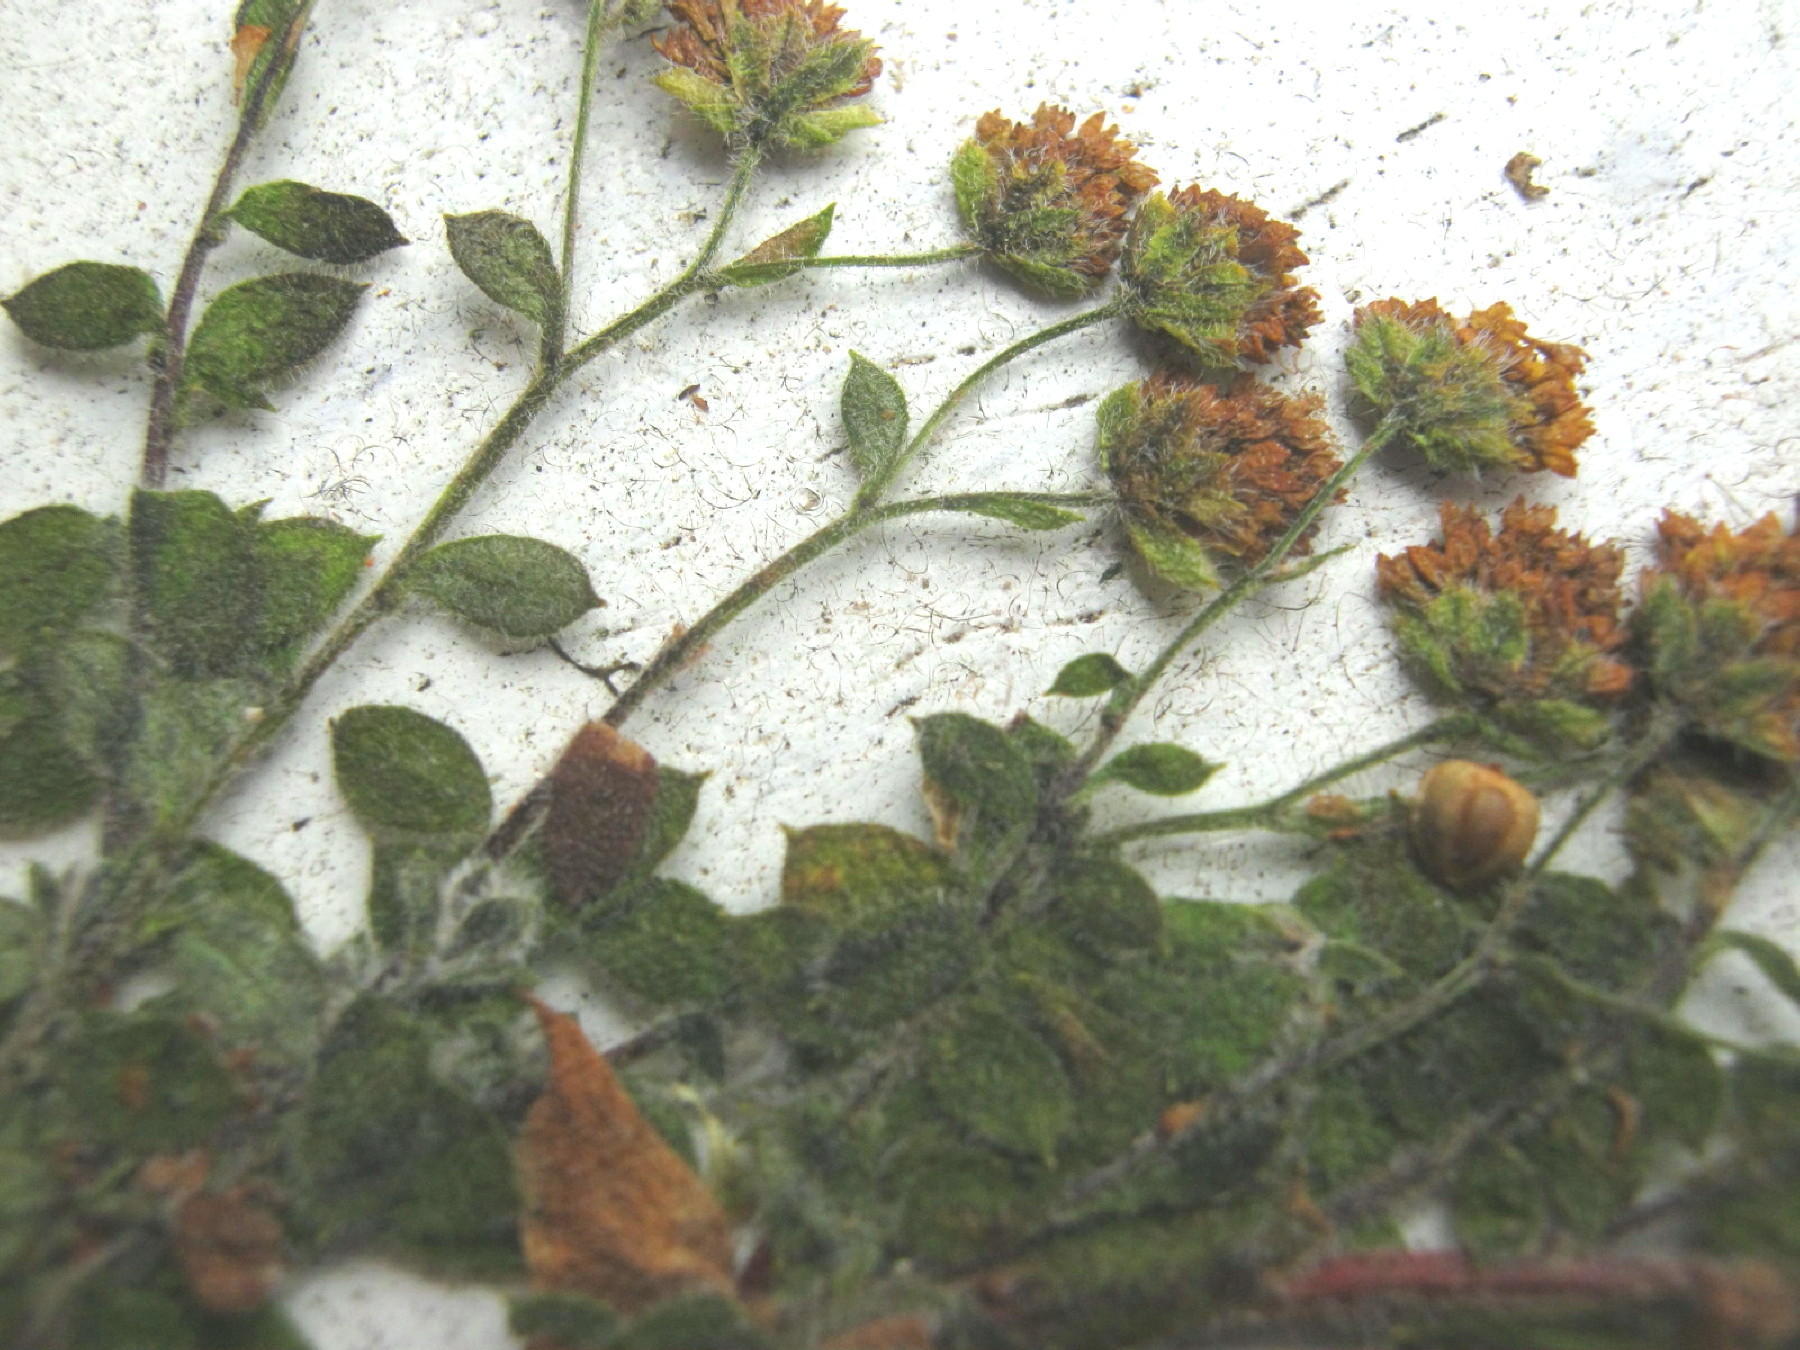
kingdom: Plantae
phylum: Tracheophyta
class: Magnoliopsida
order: Asterales
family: Asteraceae
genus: Hippia
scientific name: Hippia simplicior
